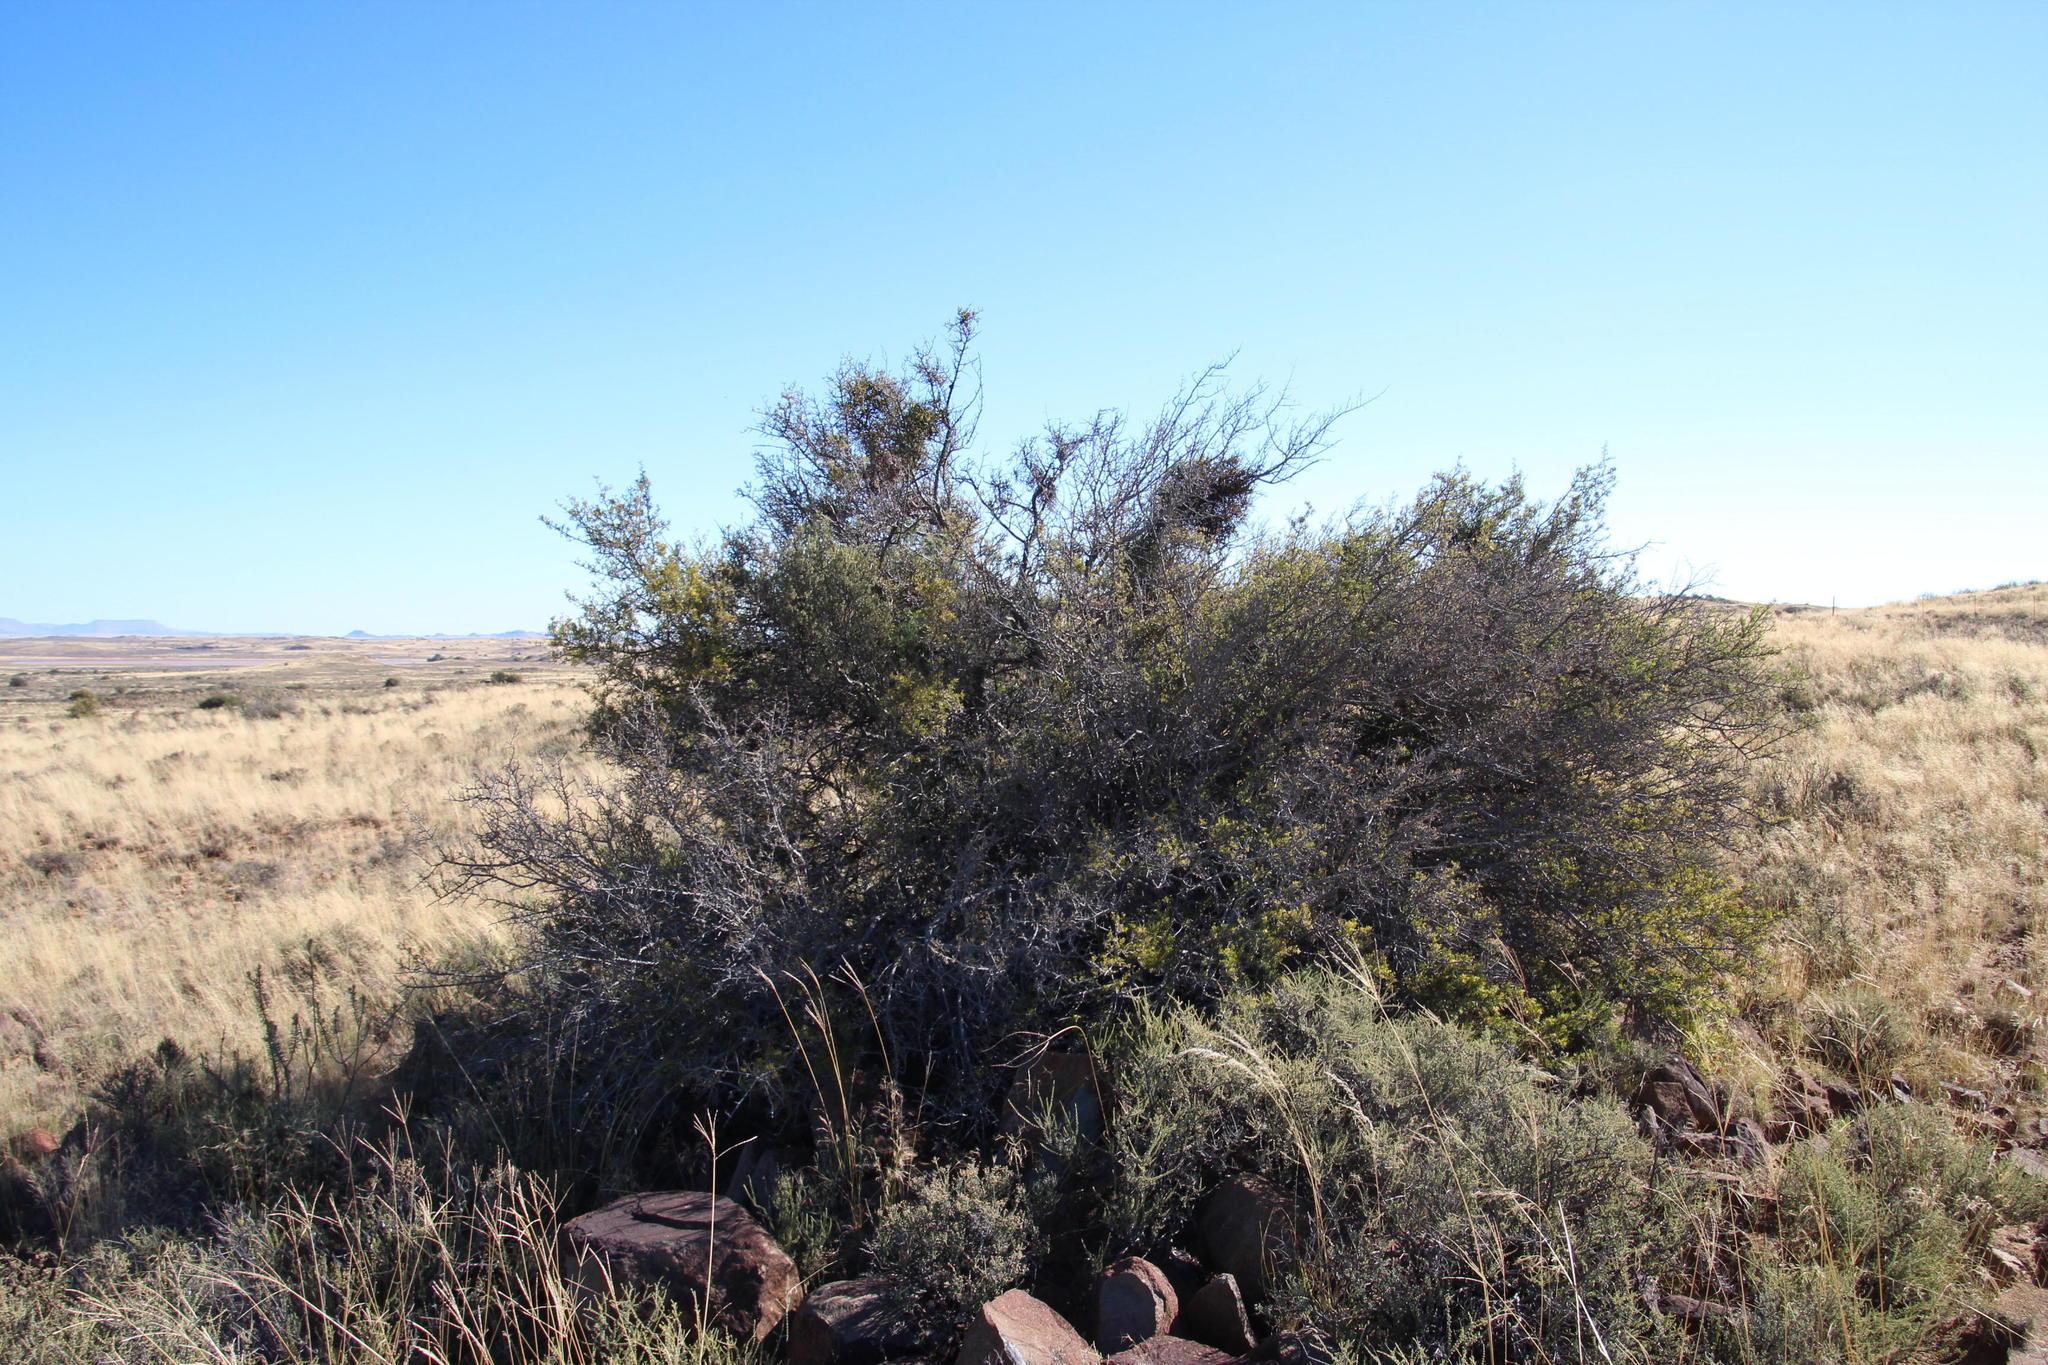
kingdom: Plantae
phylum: Tracheophyta
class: Magnoliopsida
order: Sapindales
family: Anacardiaceae
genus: Searsia
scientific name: Searsia burchellii
